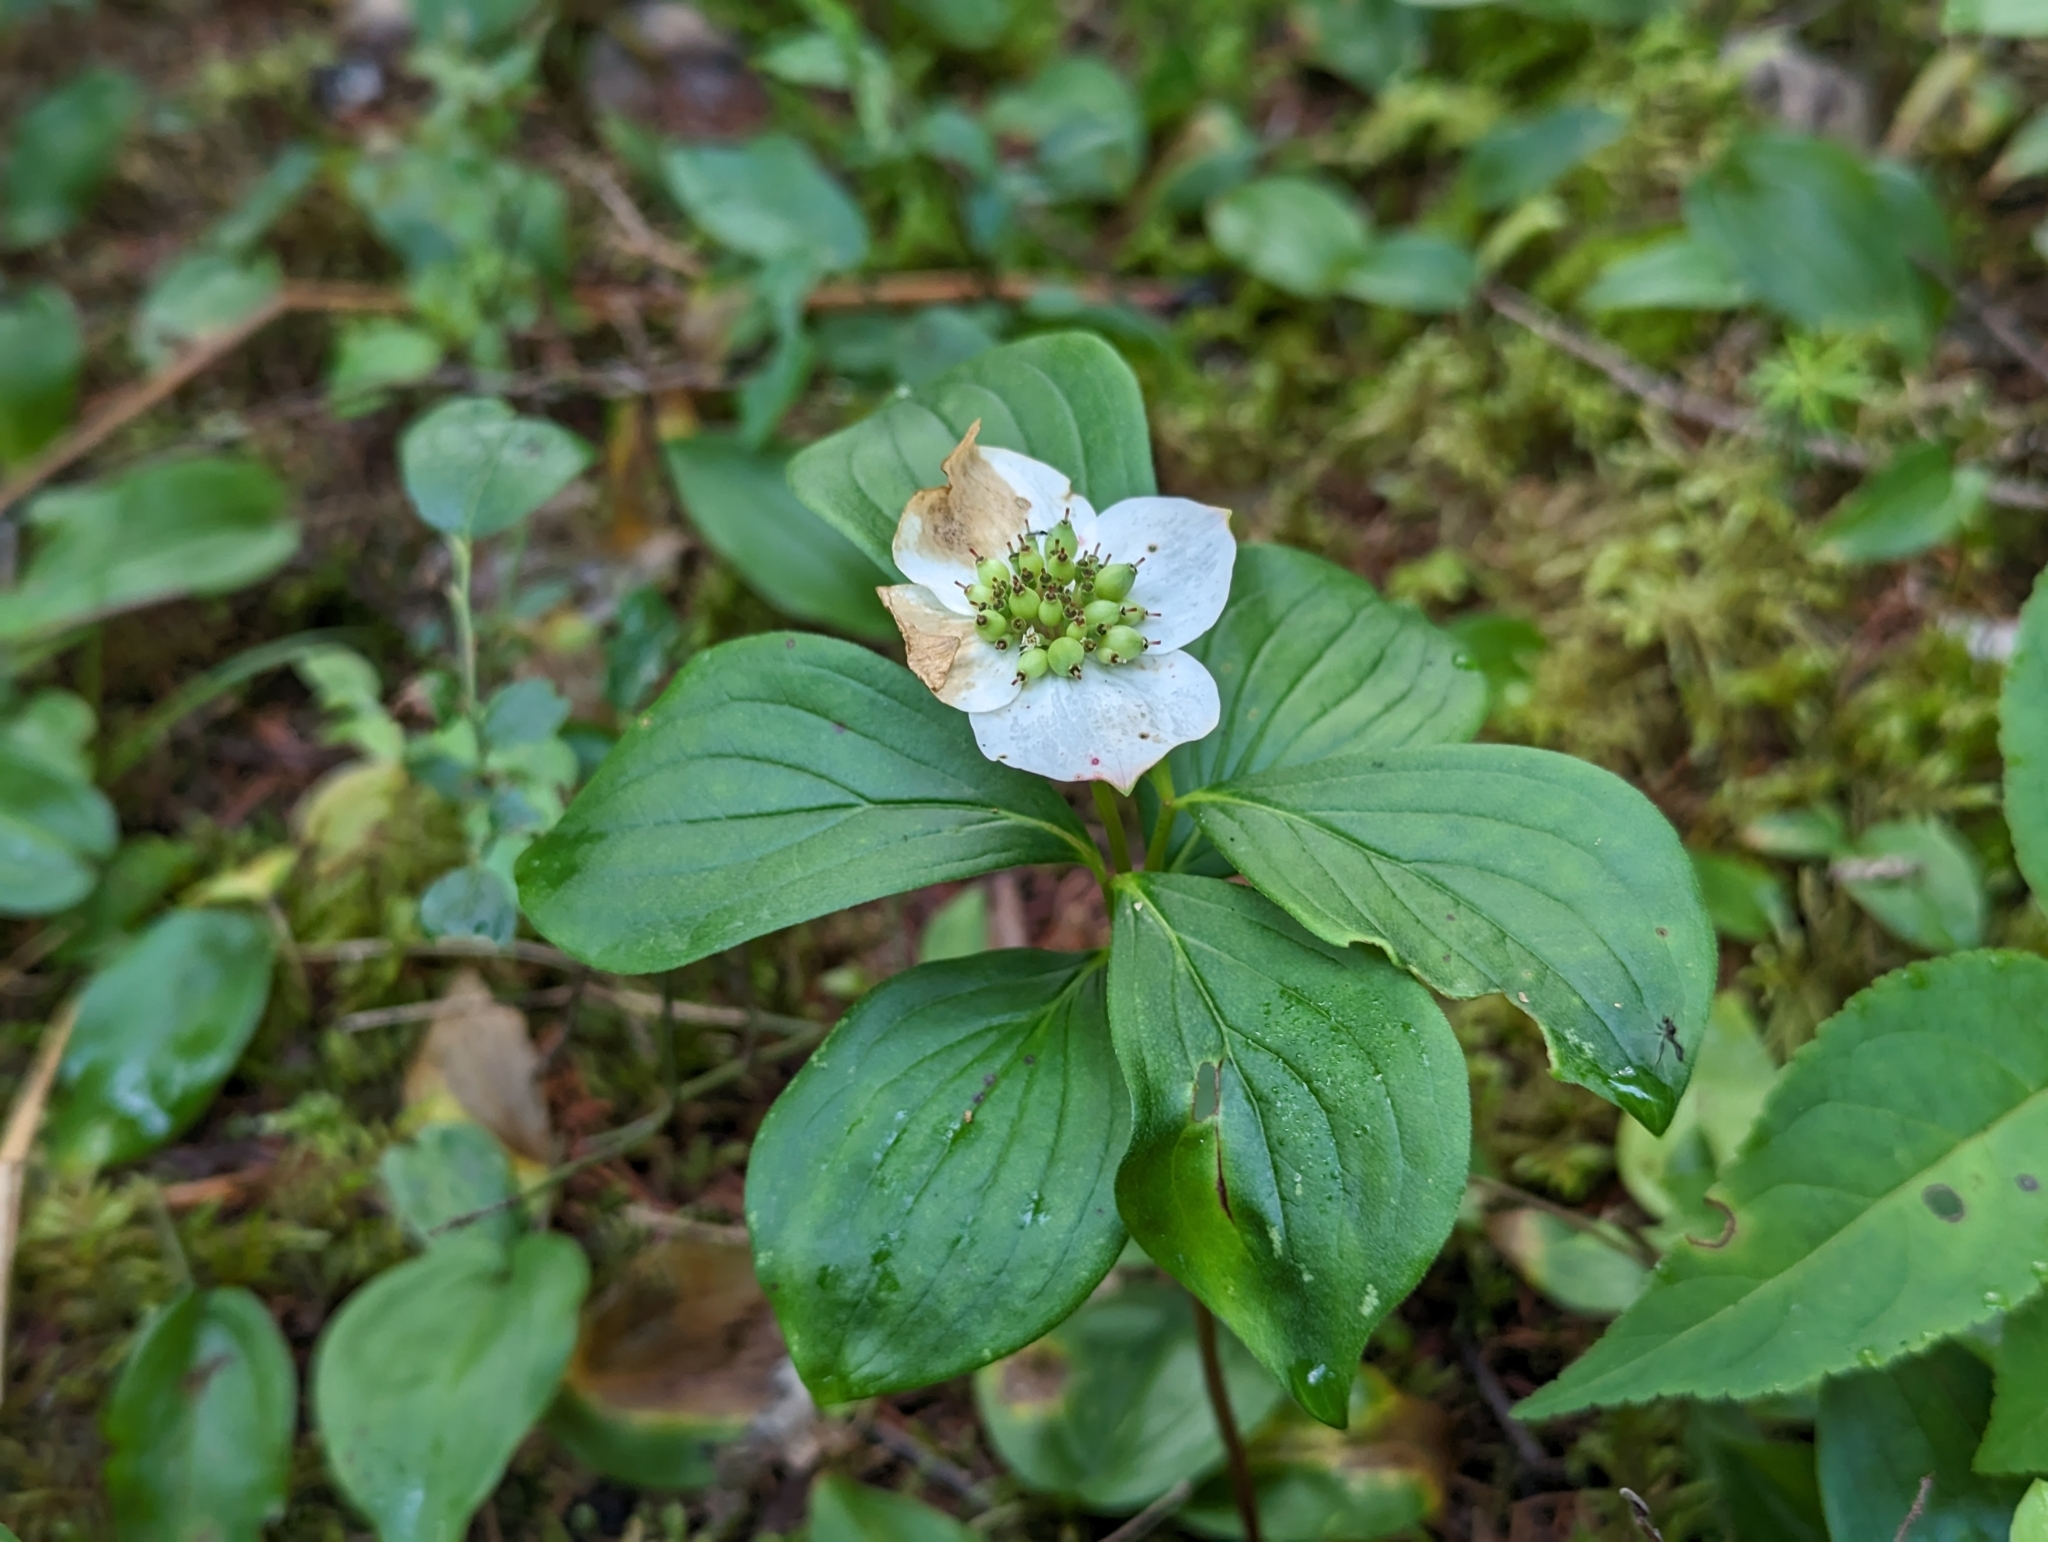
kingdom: Plantae
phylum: Tracheophyta
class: Magnoliopsida
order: Cornales
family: Cornaceae
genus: Cornus
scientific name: Cornus canadensis
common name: Creeping dogwood
